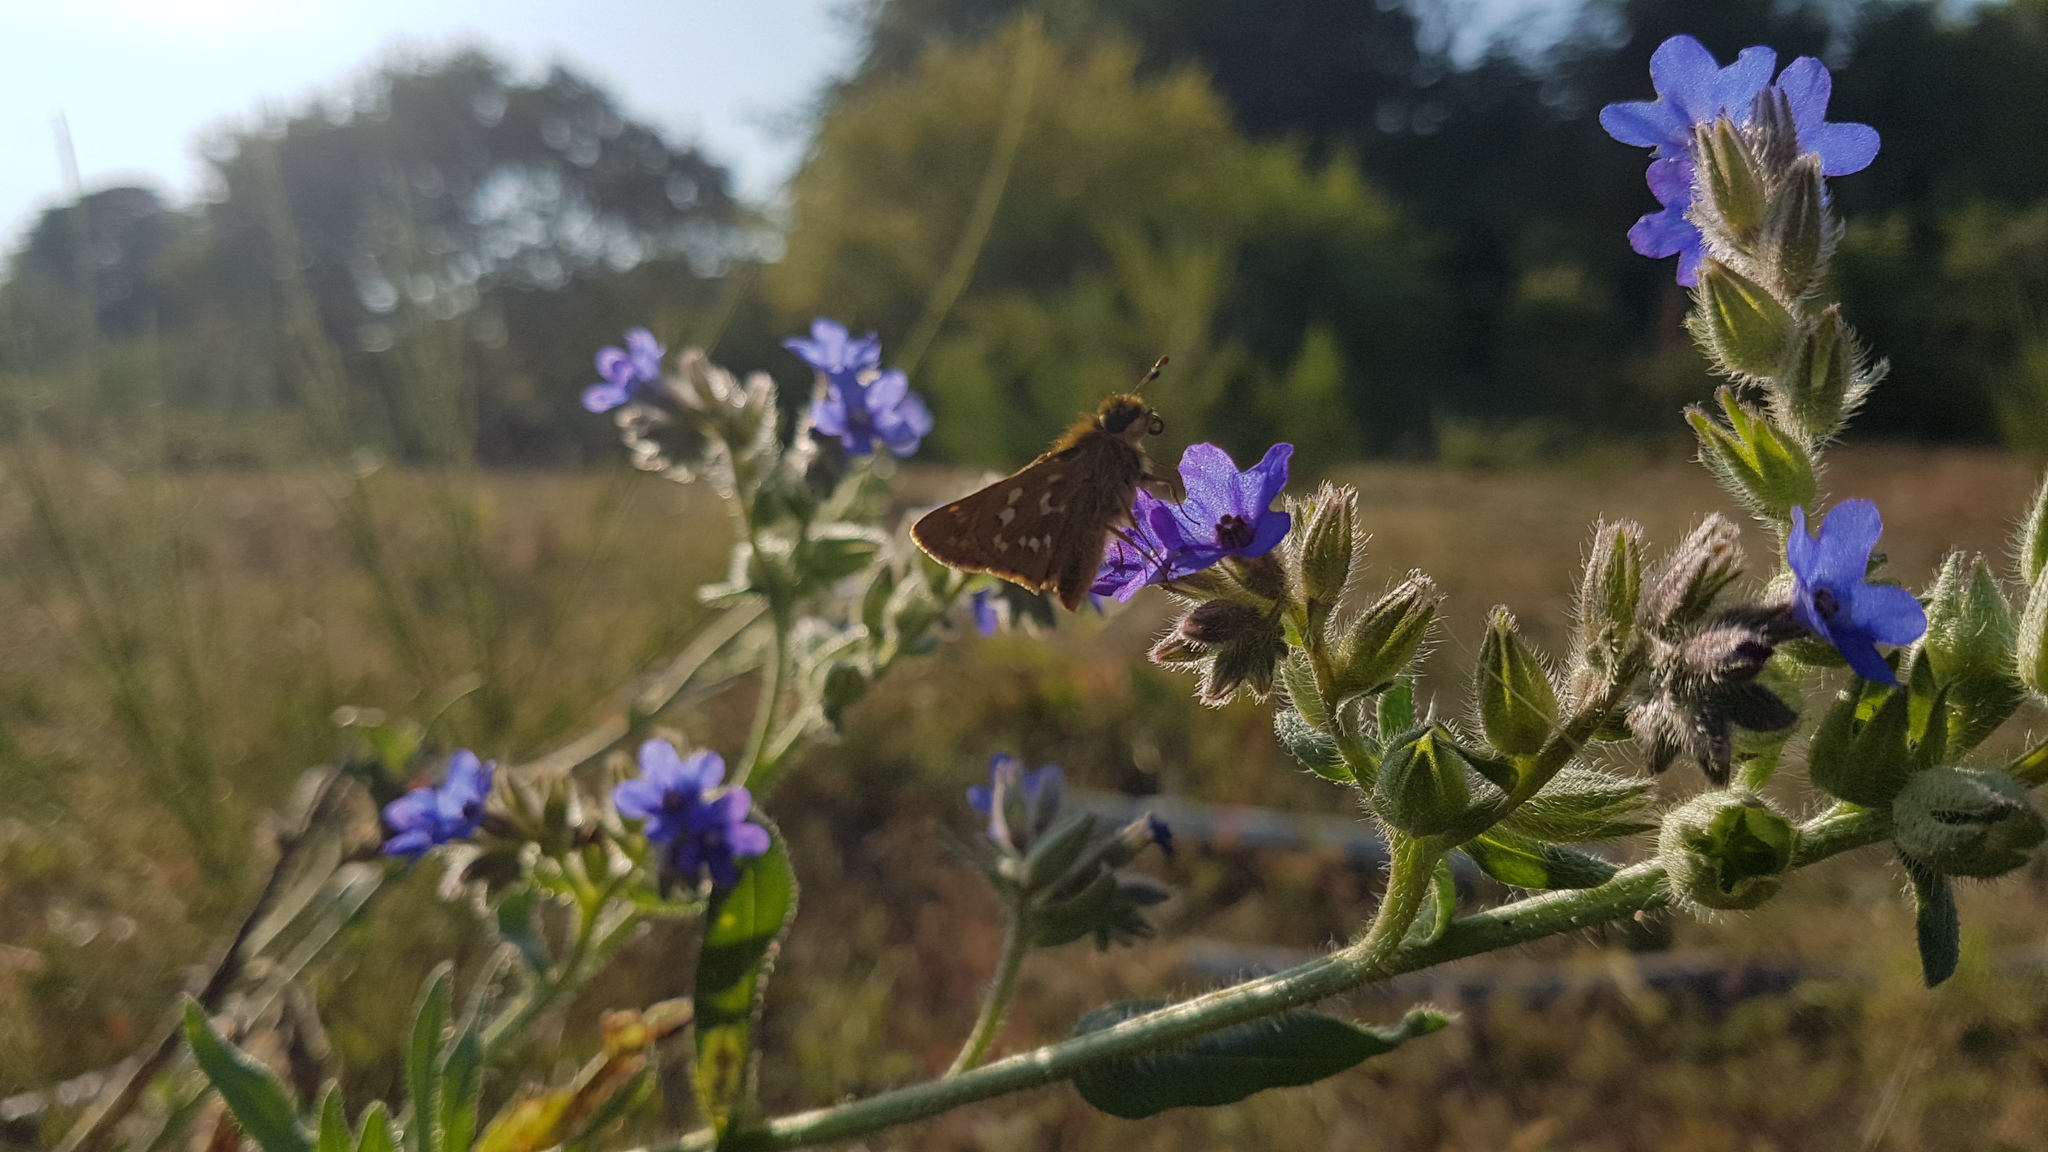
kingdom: Animalia
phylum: Arthropoda
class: Insecta
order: Lepidoptera
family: Hesperiidae
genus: Hesperia
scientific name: Hesperia comma
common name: Common branded skipper
